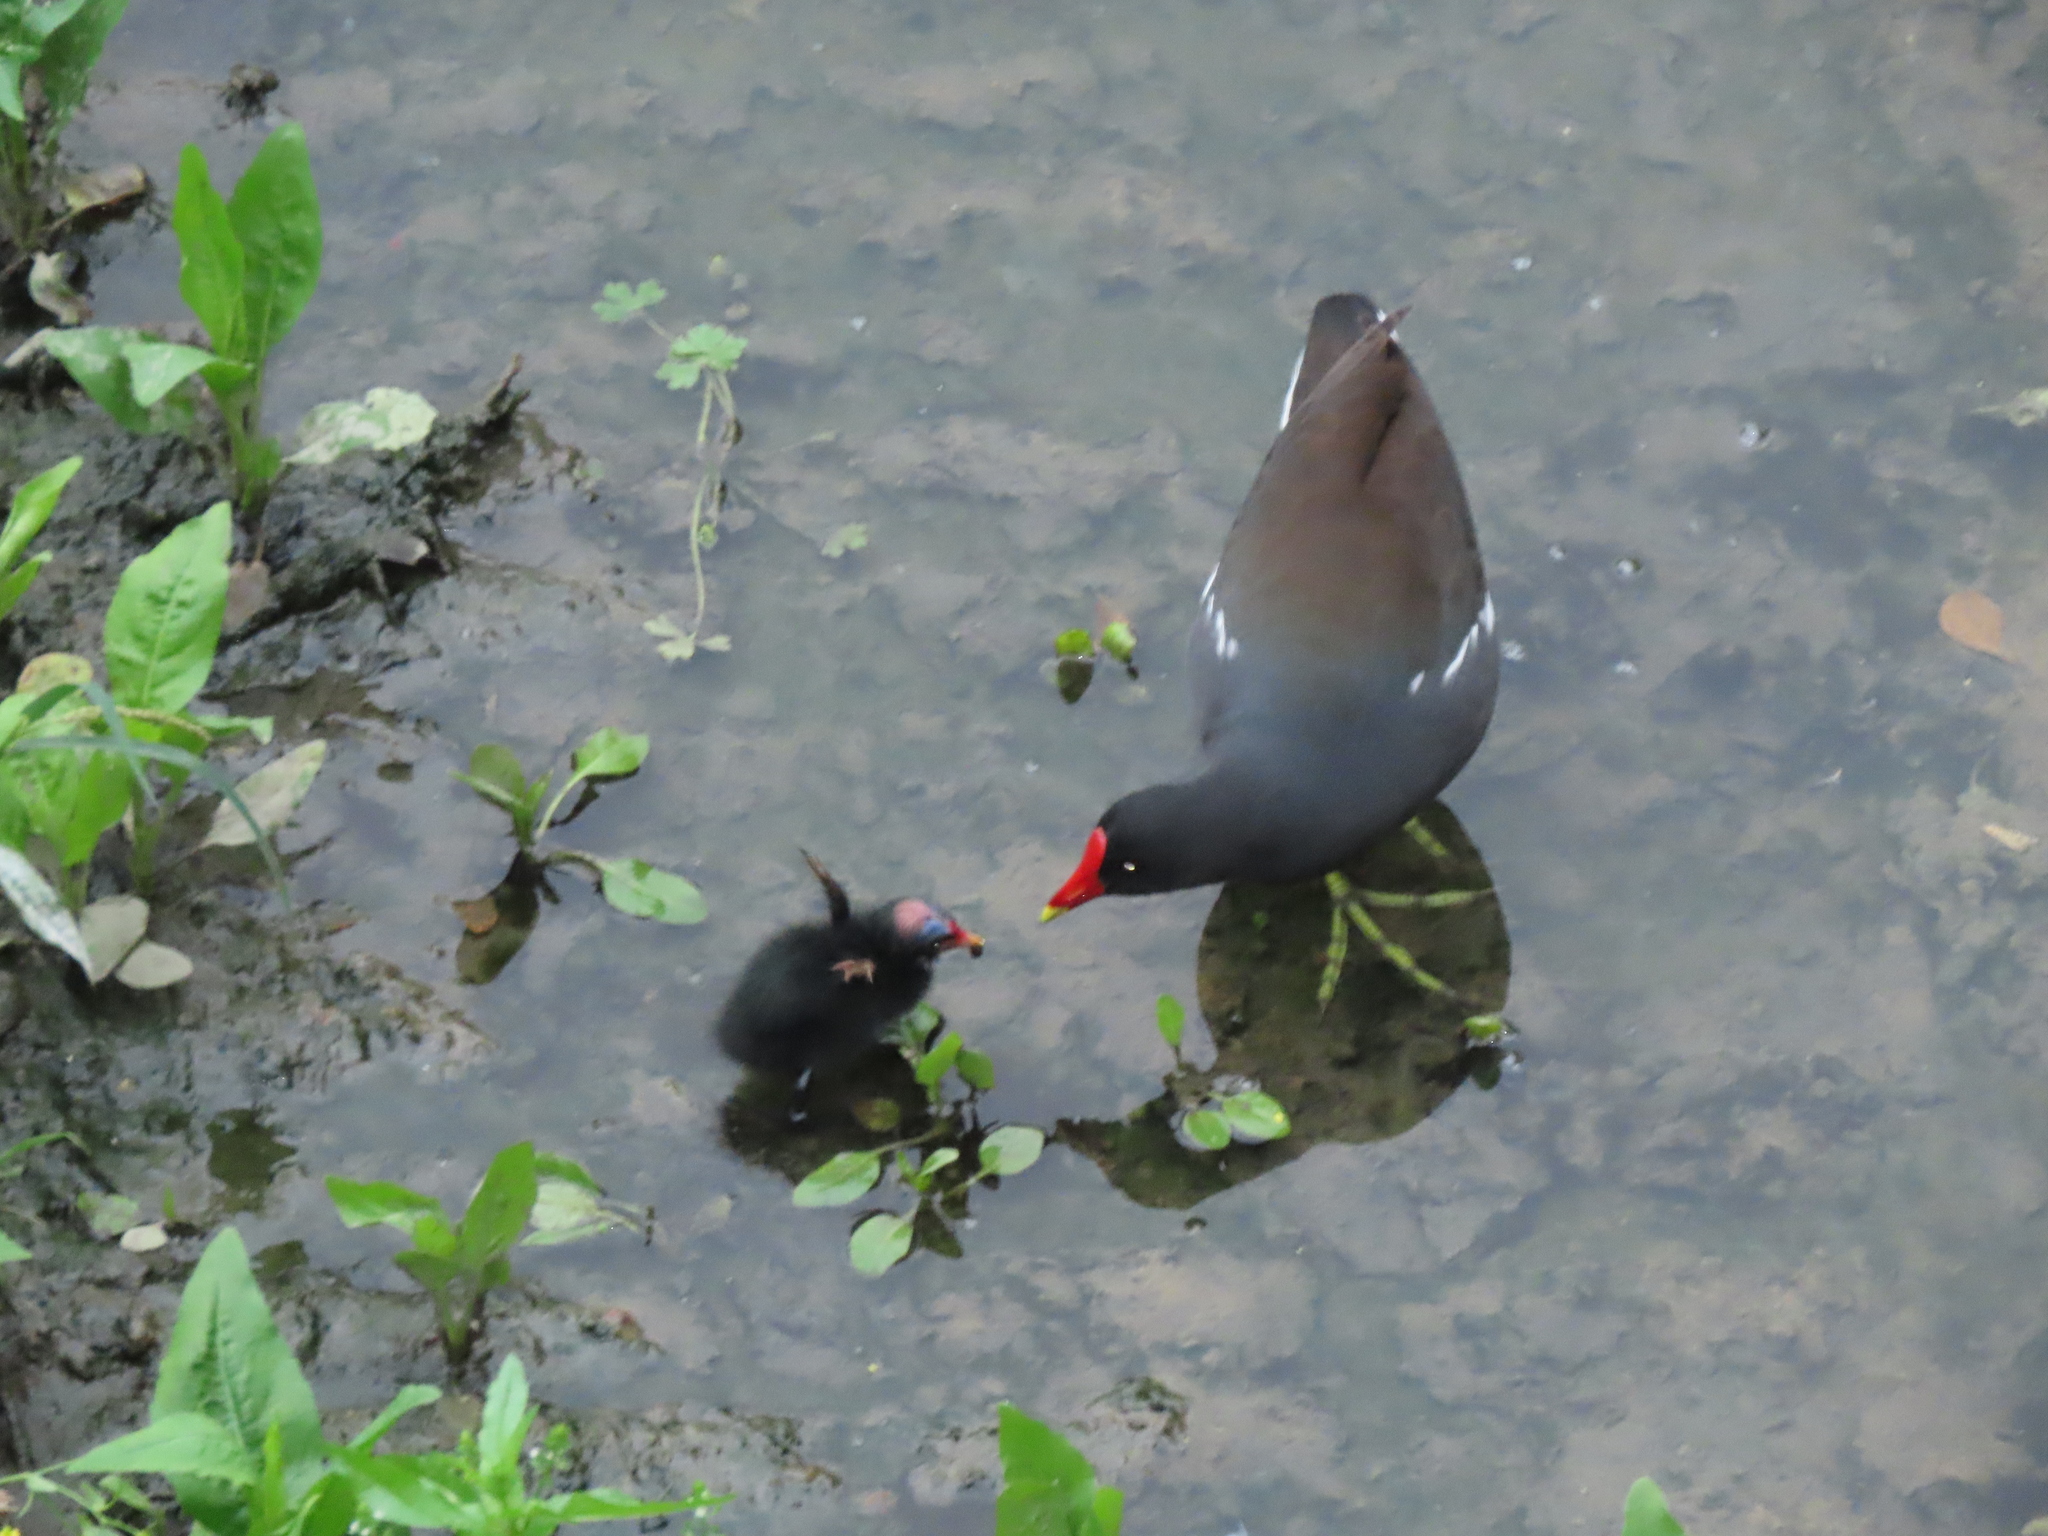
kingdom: Animalia
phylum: Chordata
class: Aves
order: Gruiformes
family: Rallidae
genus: Gallinula
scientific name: Gallinula chloropus
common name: Common moorhen
